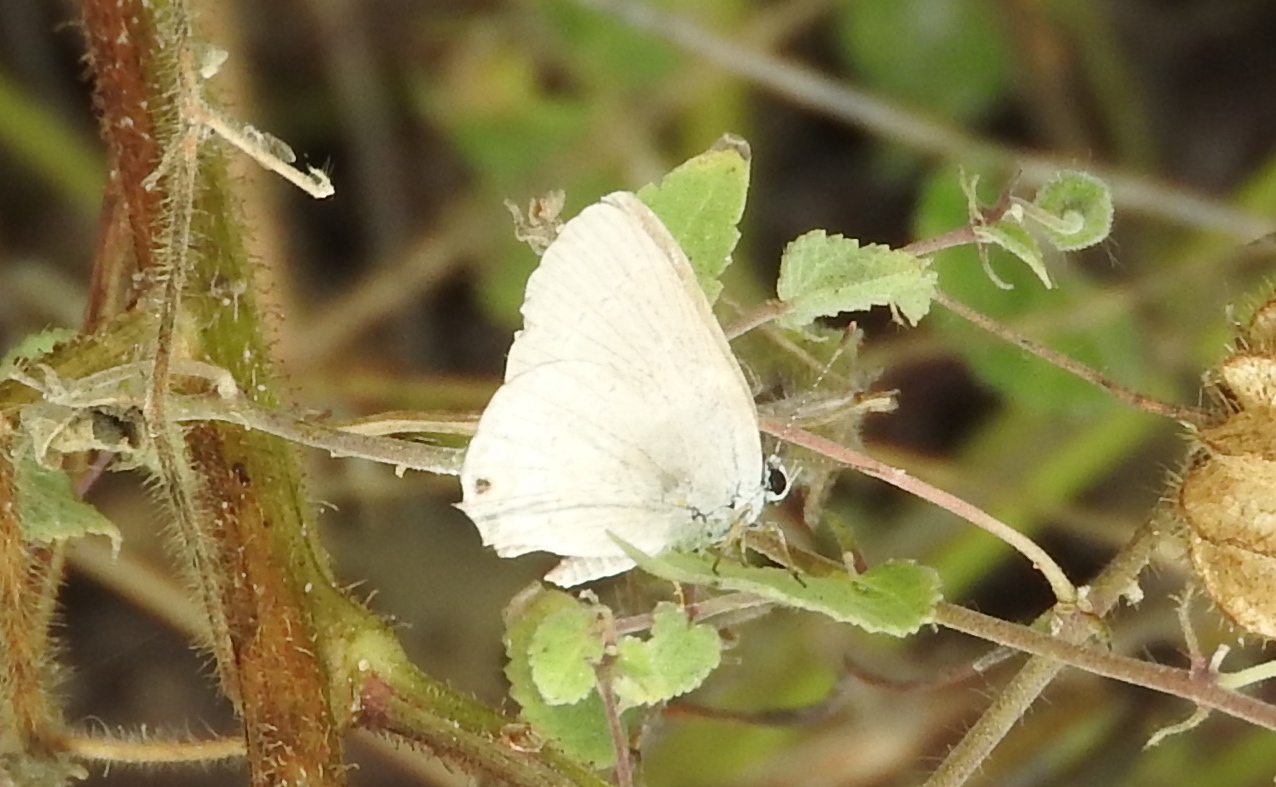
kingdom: Animalia
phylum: Arthropoda
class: Insecta
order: Lepidoptera
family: Lycaenidae
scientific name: Lycaenidae
